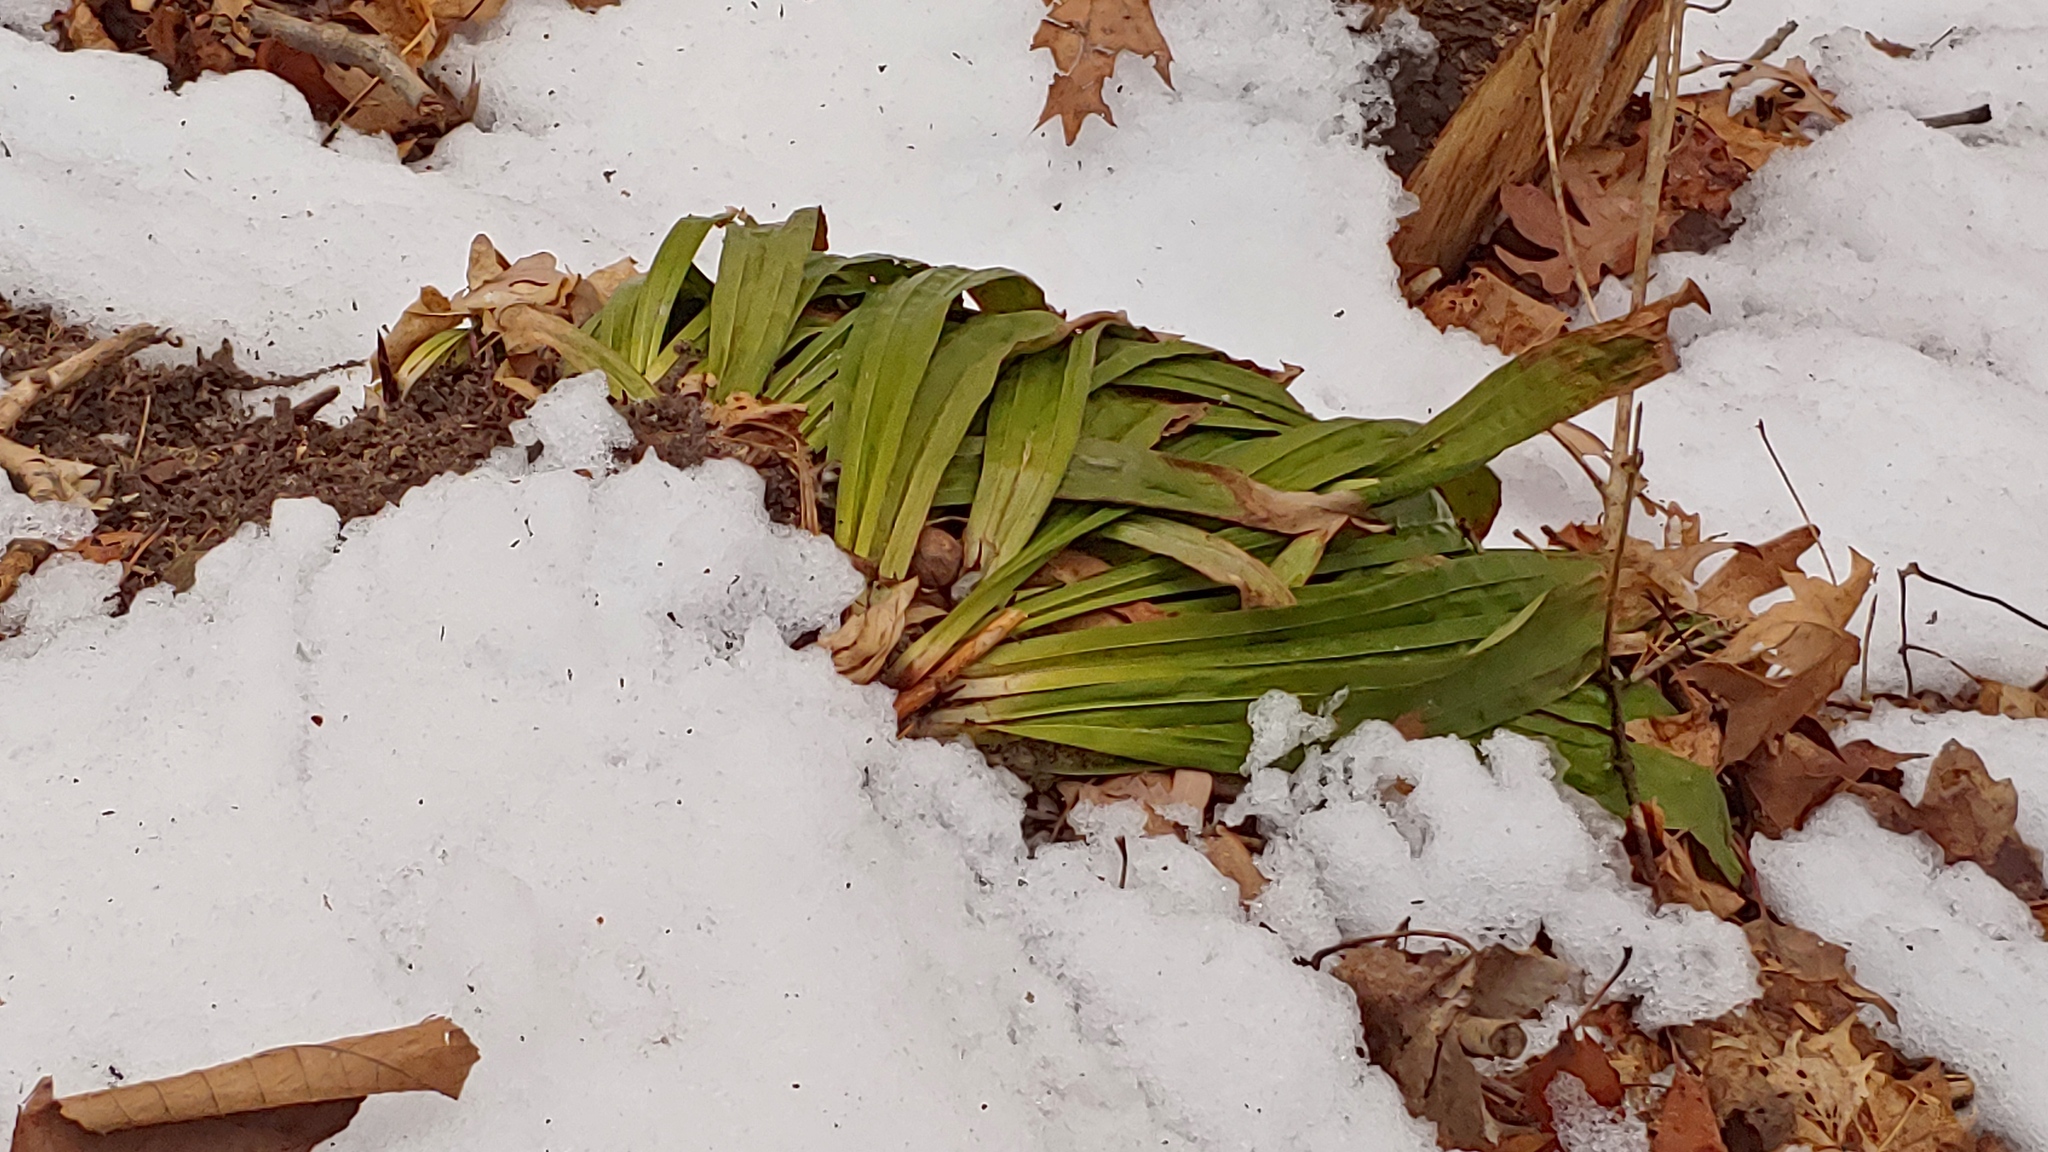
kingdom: Plantae
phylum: Tracheophyta
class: Liliopsida
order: Poales
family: Cyperaceae
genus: Carex
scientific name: Carex plantaginea
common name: Plantain-leaved sedge
